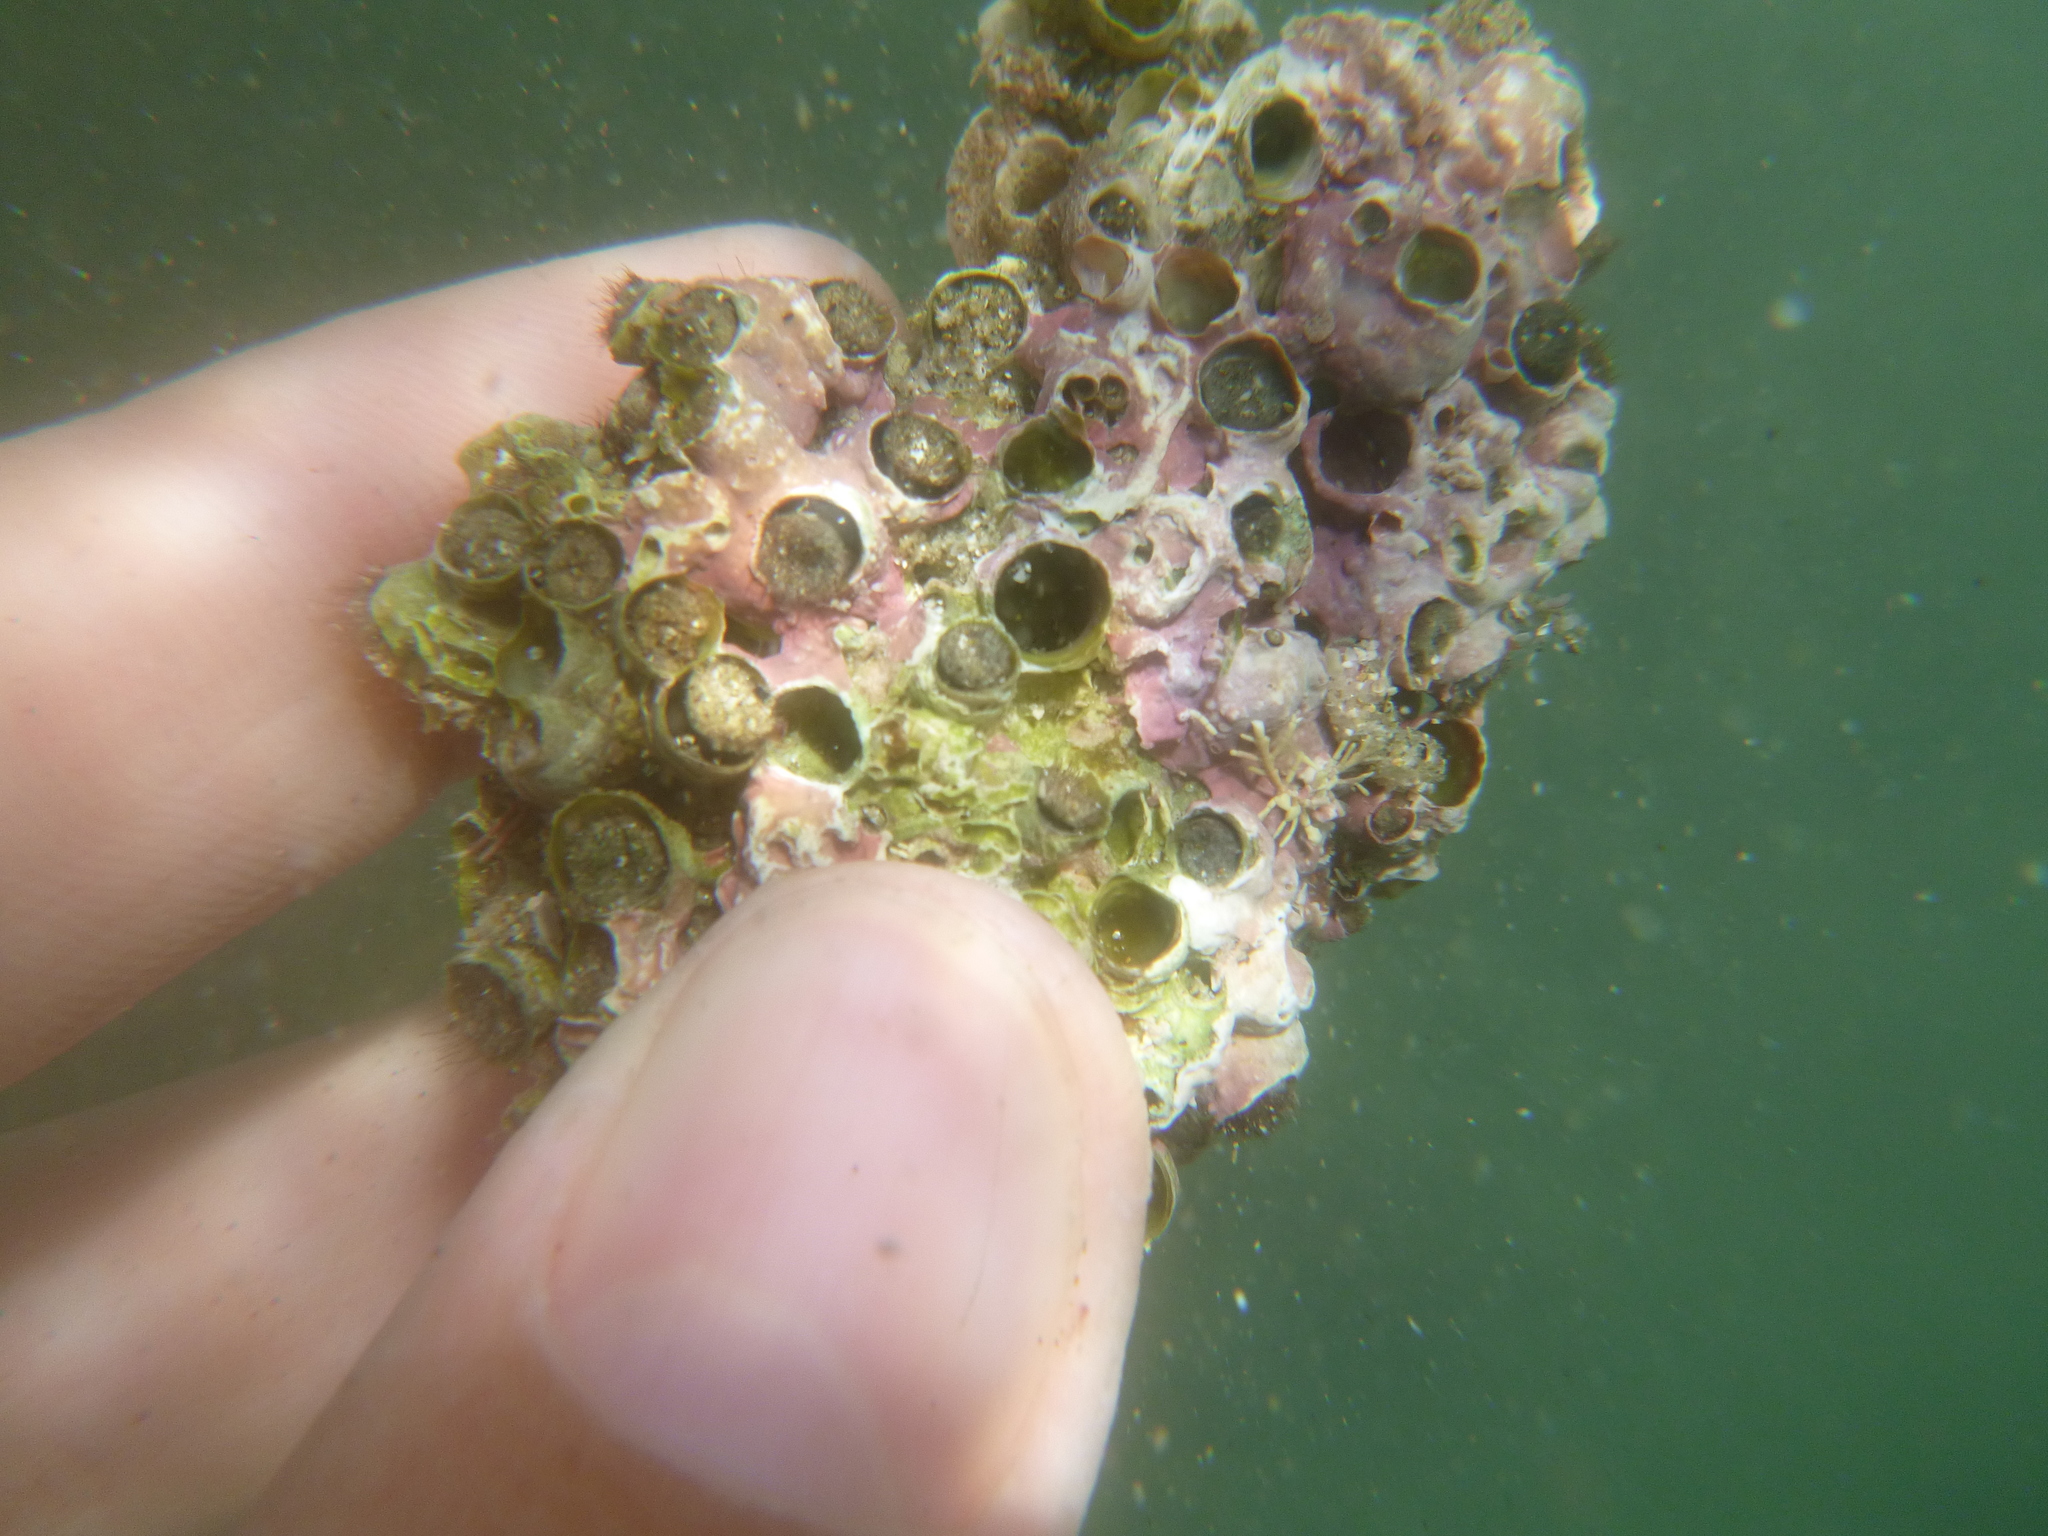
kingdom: Animalia
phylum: Mollusca
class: Gastropoda
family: Siliquariidae
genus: Stephopoma
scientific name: Stephopoma roseum
